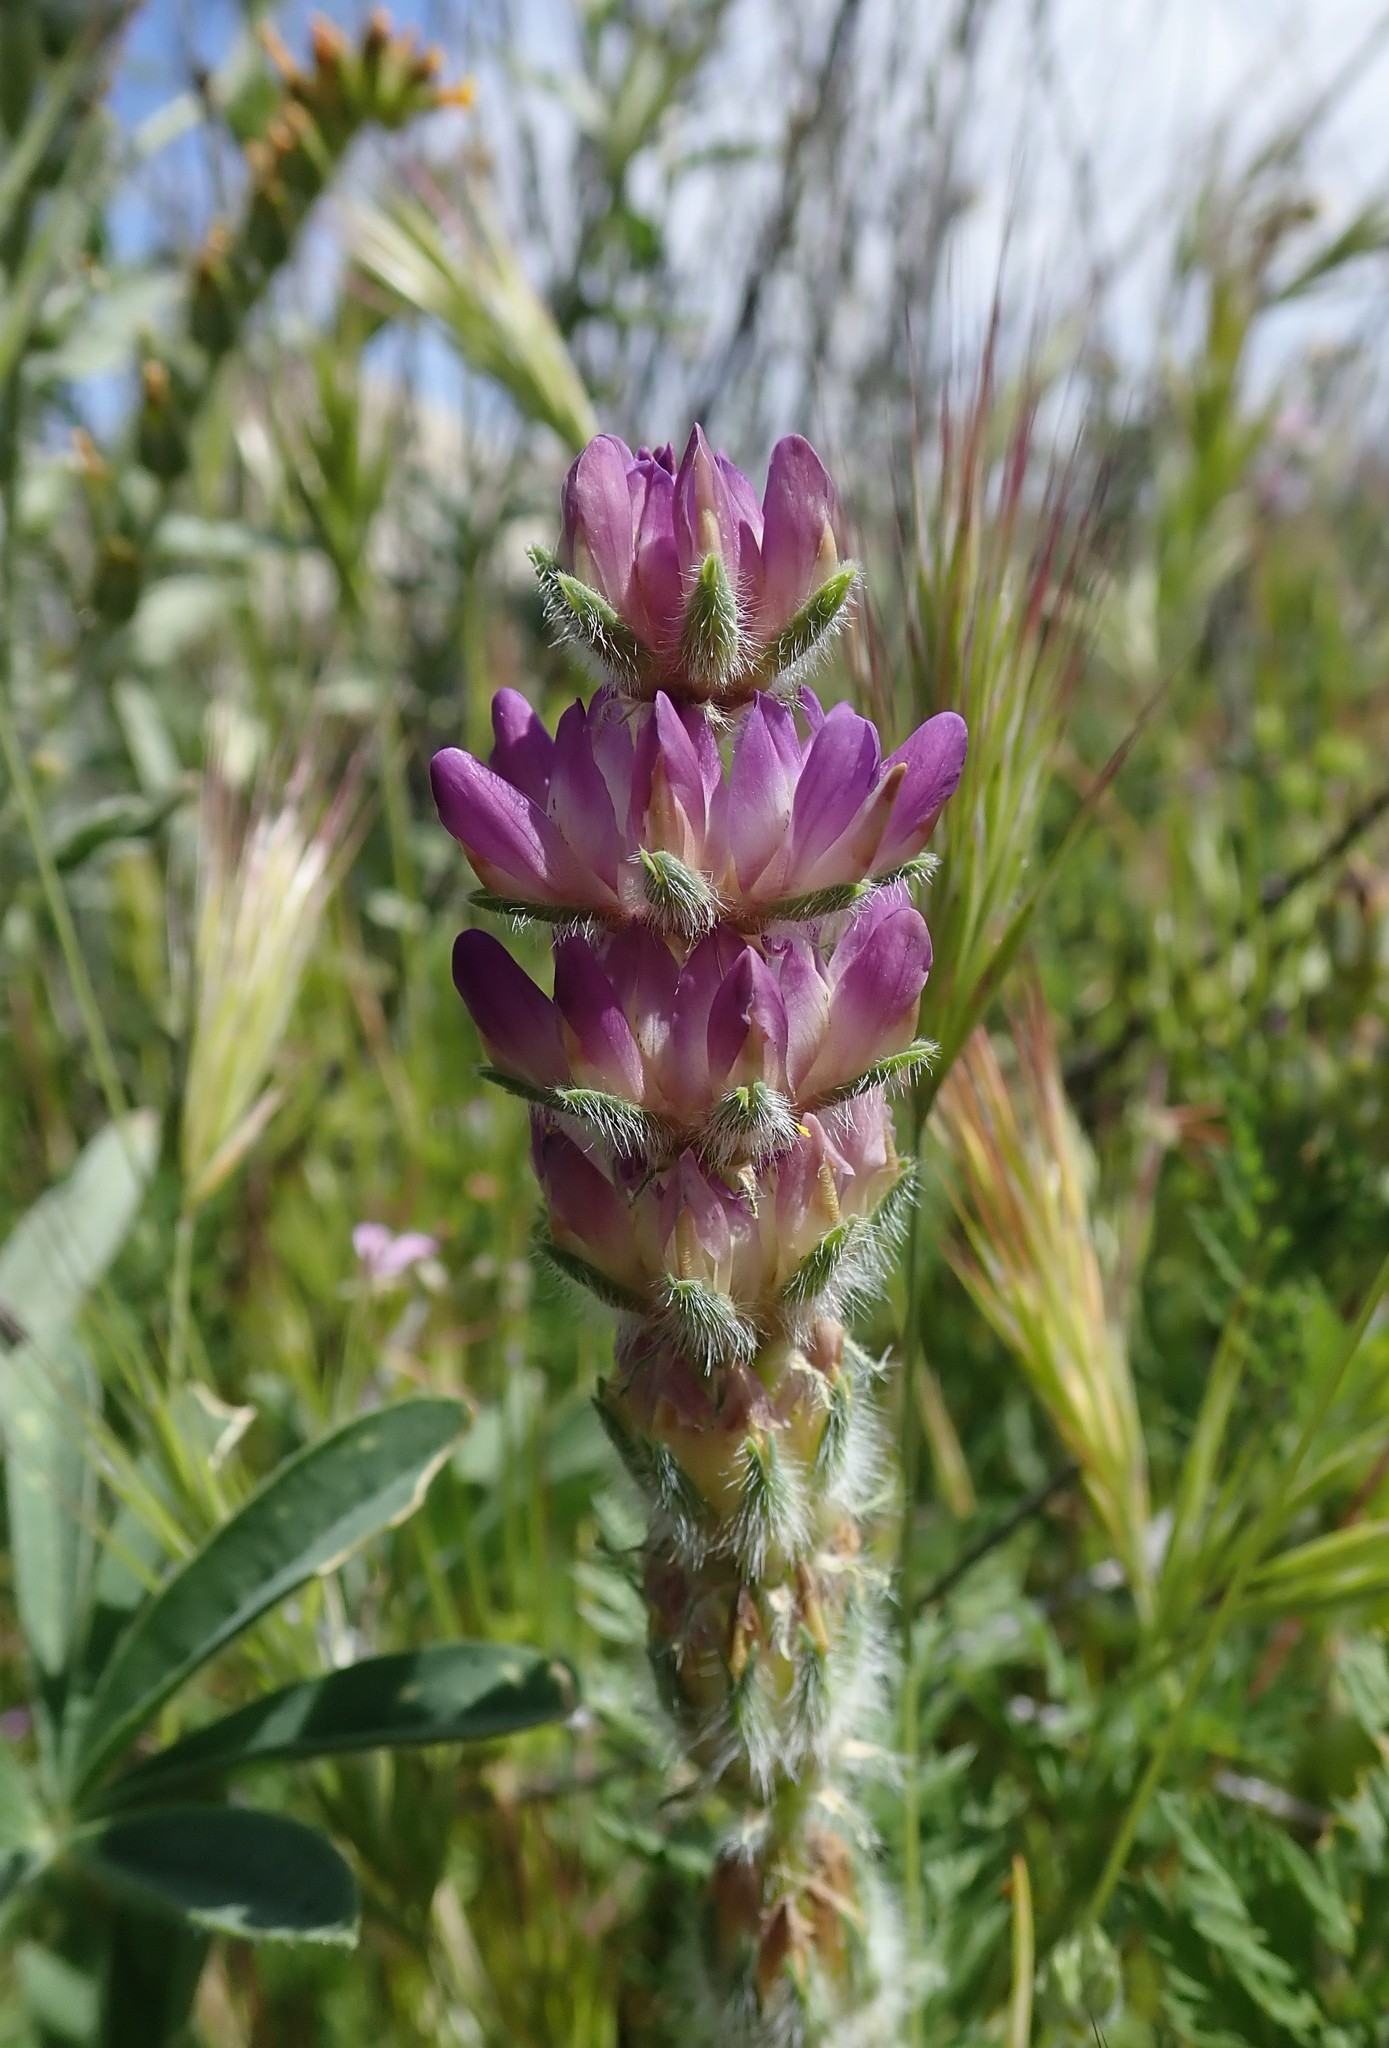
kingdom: Plantae
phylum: Tracheophyta
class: Magnoliopsida
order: Fabales
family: Fabaceae
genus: Lupinus
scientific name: Lupinus microcarpus
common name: Chick lupine
